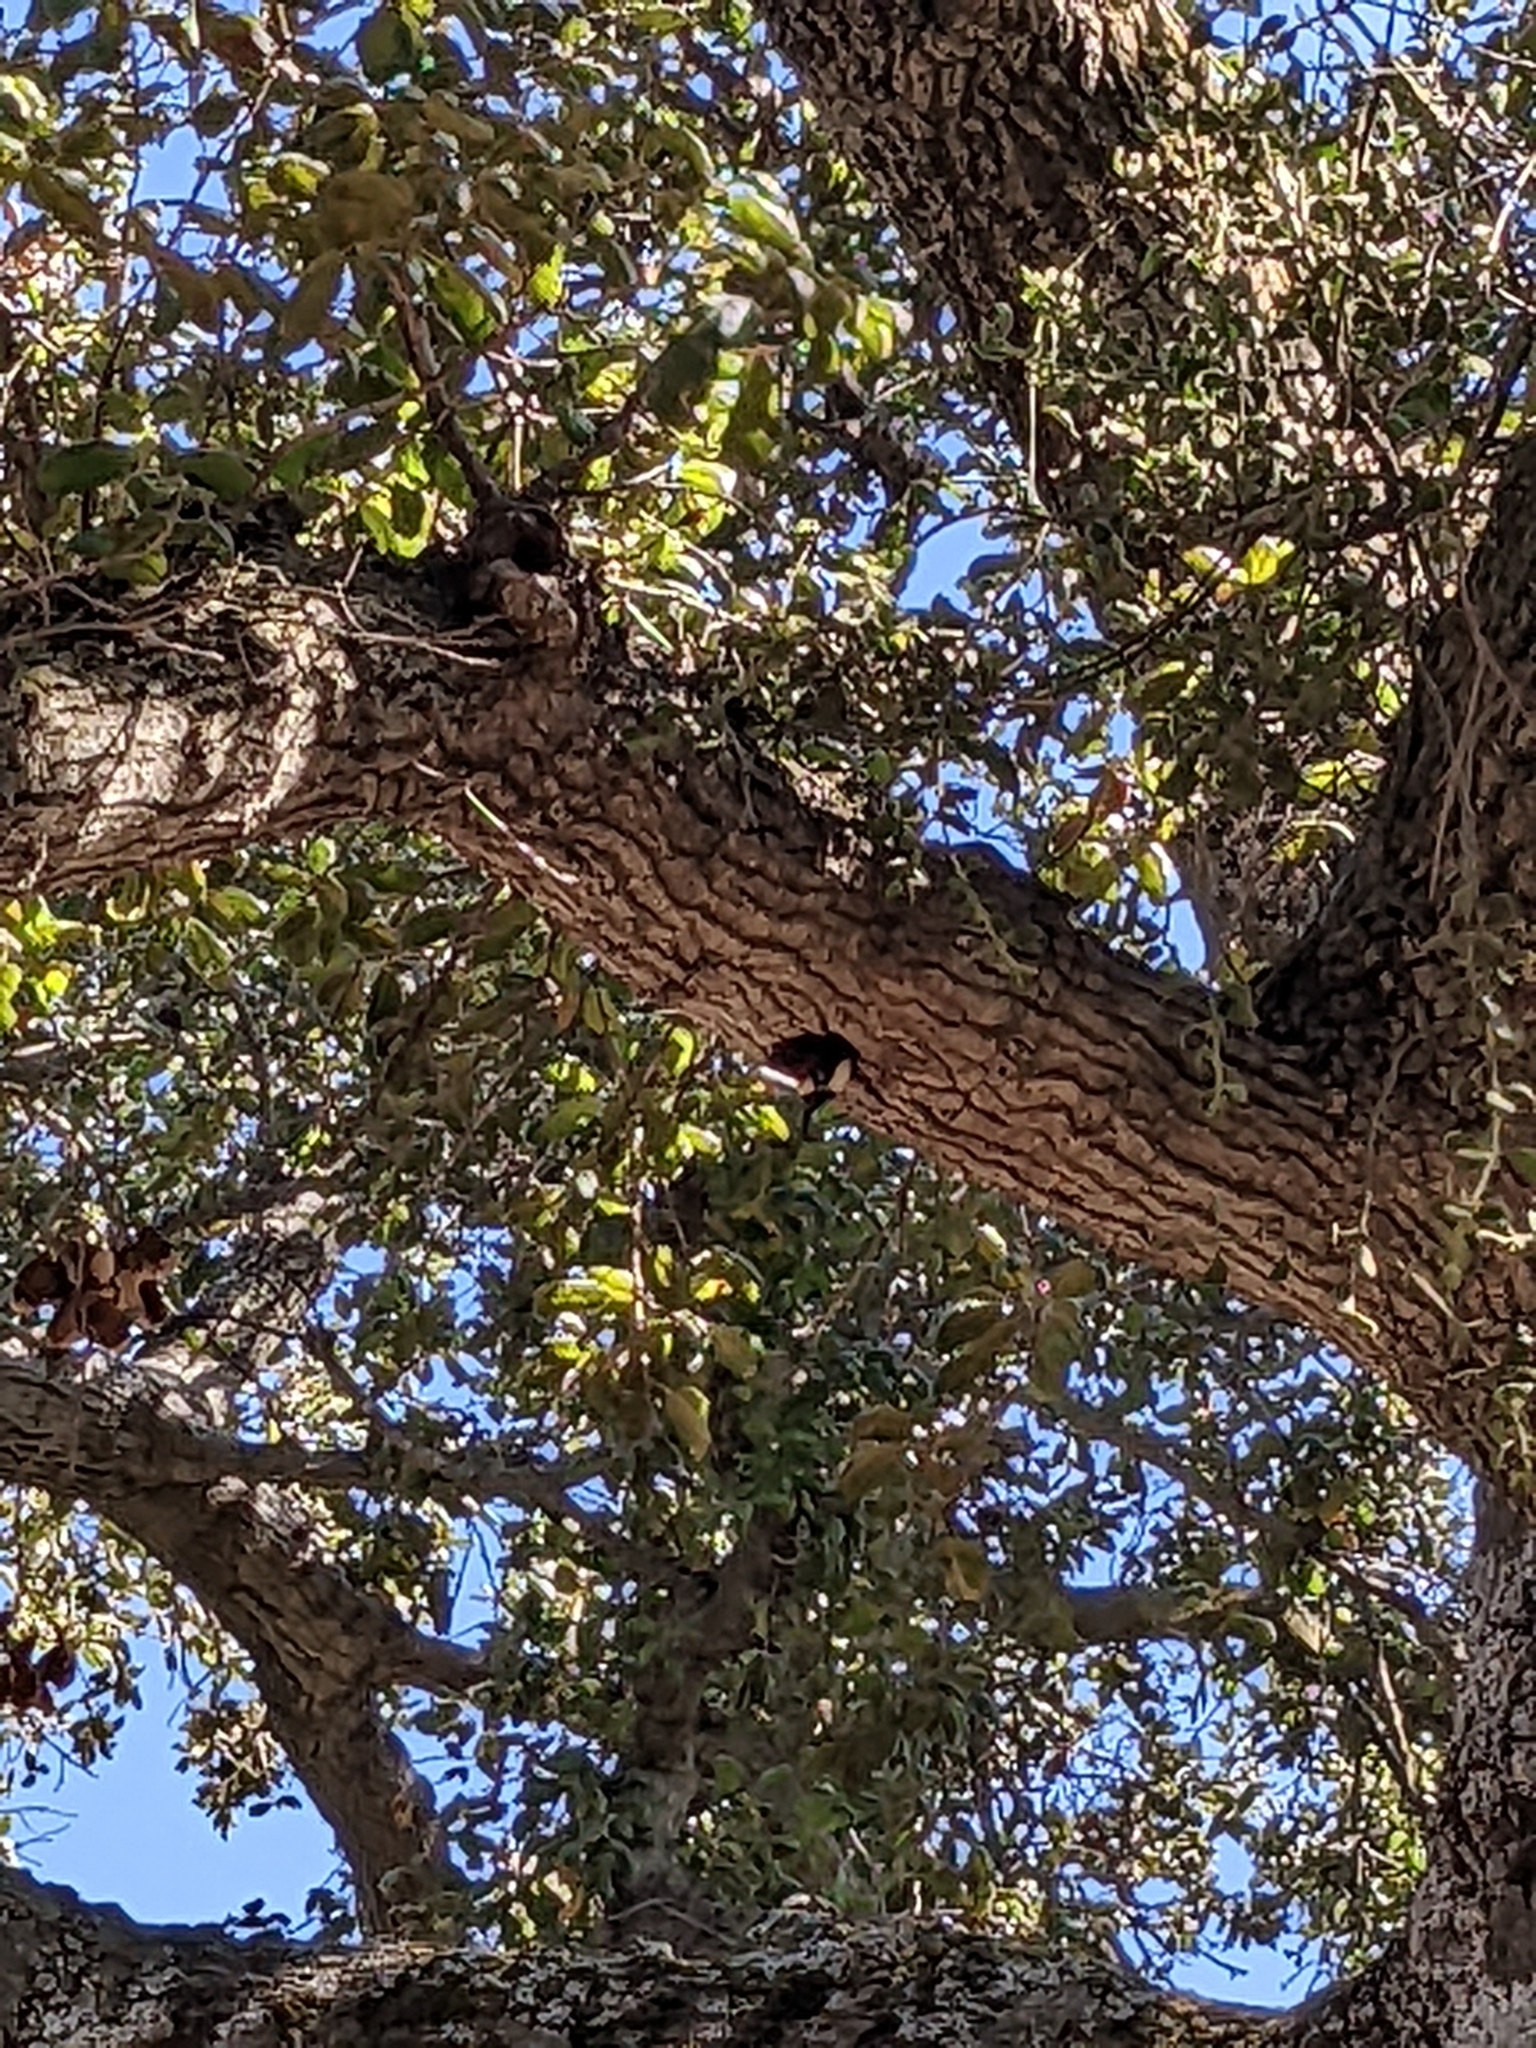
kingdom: Animalia
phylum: Chordata
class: Aves
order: Piciformes
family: Picidae
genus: Melanerpes
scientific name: Melanerpes formicivorus
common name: Acorn woodpecker
